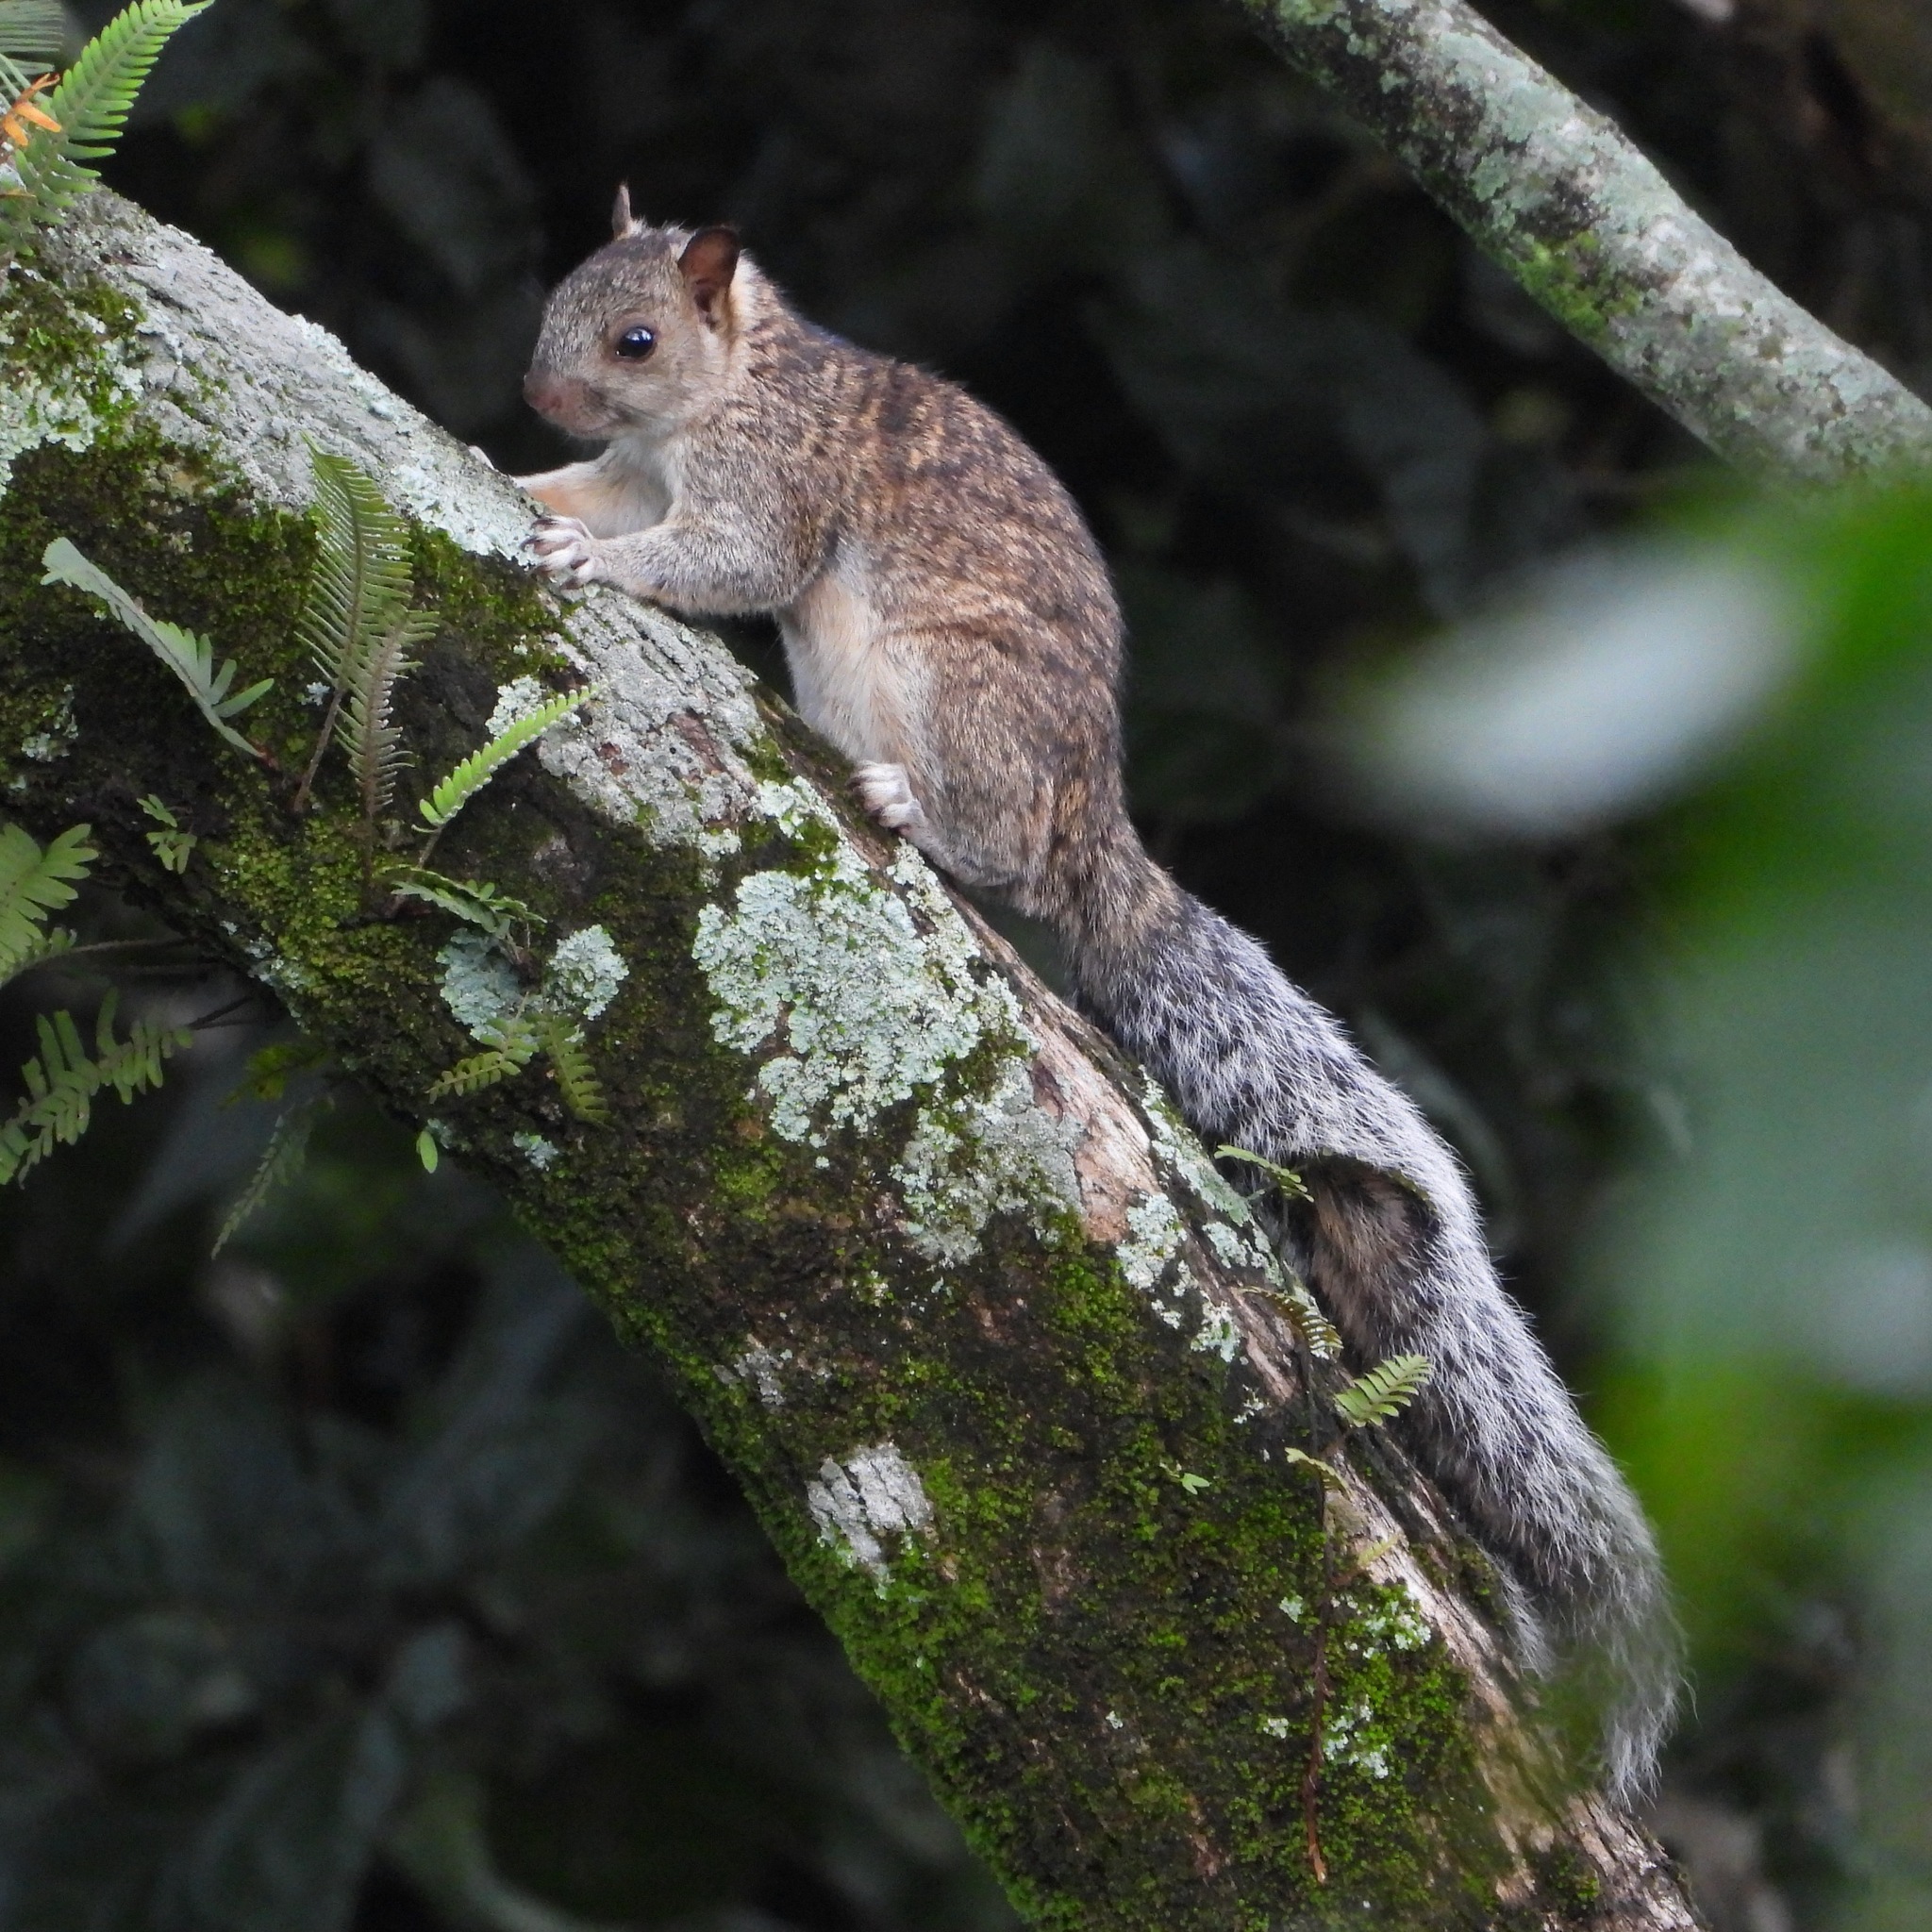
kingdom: Animalia
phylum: Chordata
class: Mammalia
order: Rodentia
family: Sciuridae
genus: Sciurus
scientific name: Sciurus variegatoides
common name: Variegated squirrel
